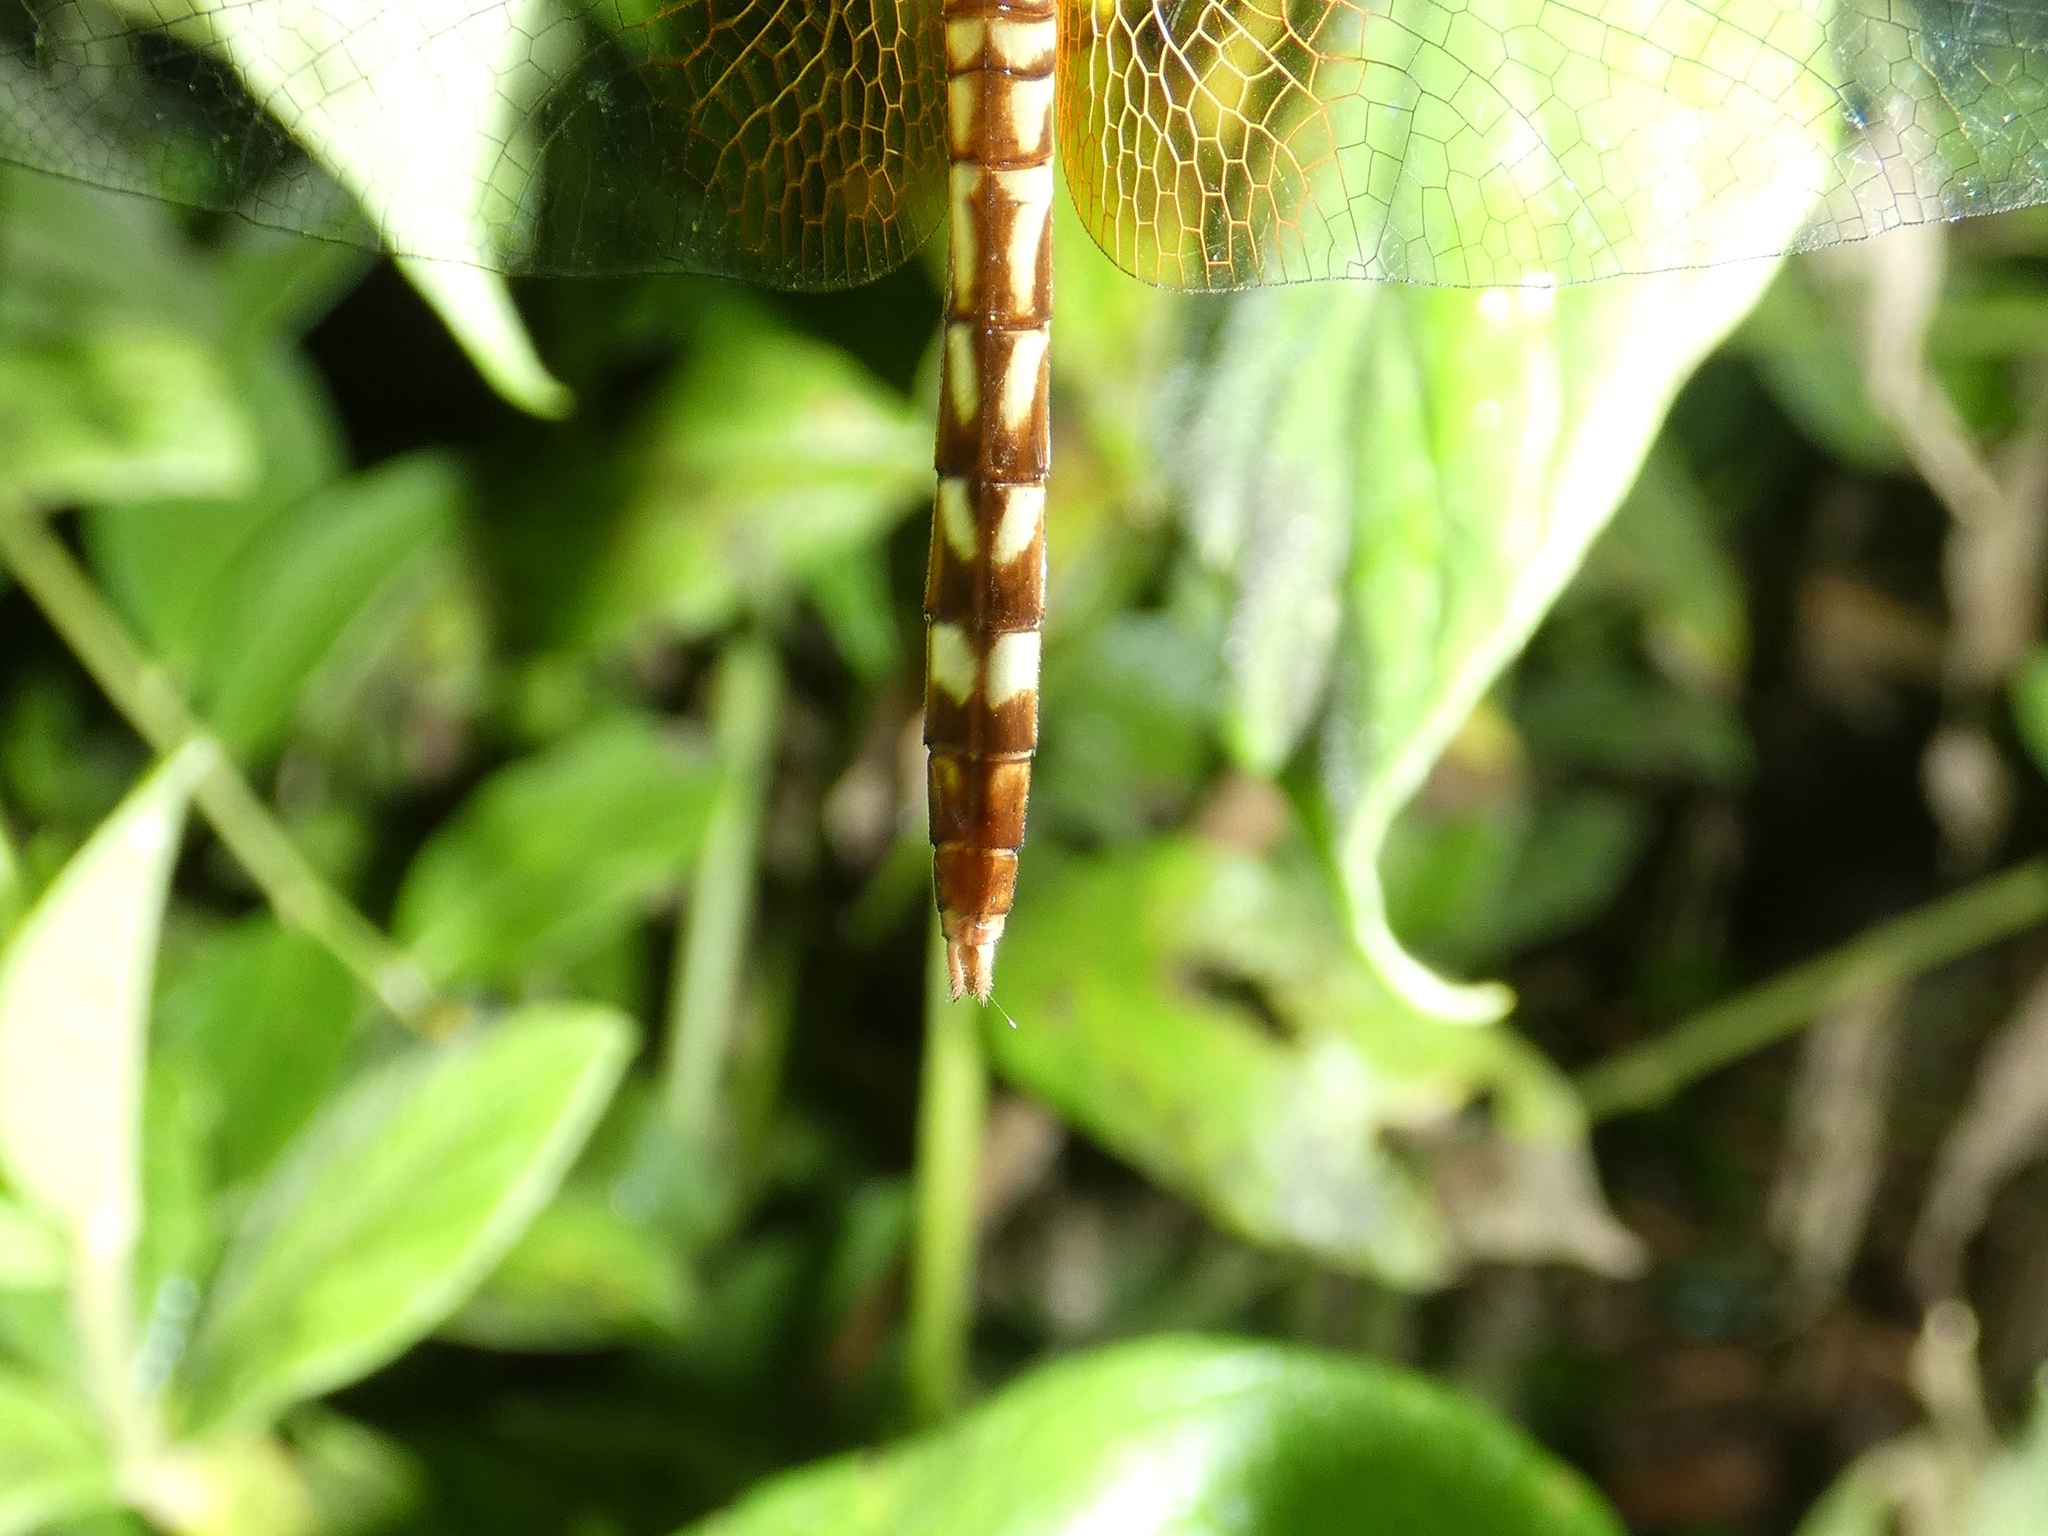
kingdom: Animalia
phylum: Arthropoda
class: Insecta
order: Odonata
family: Libellulidae
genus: Erythrodiplax
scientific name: Erythrodiplax fervida
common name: Red-mantled dragonlet
